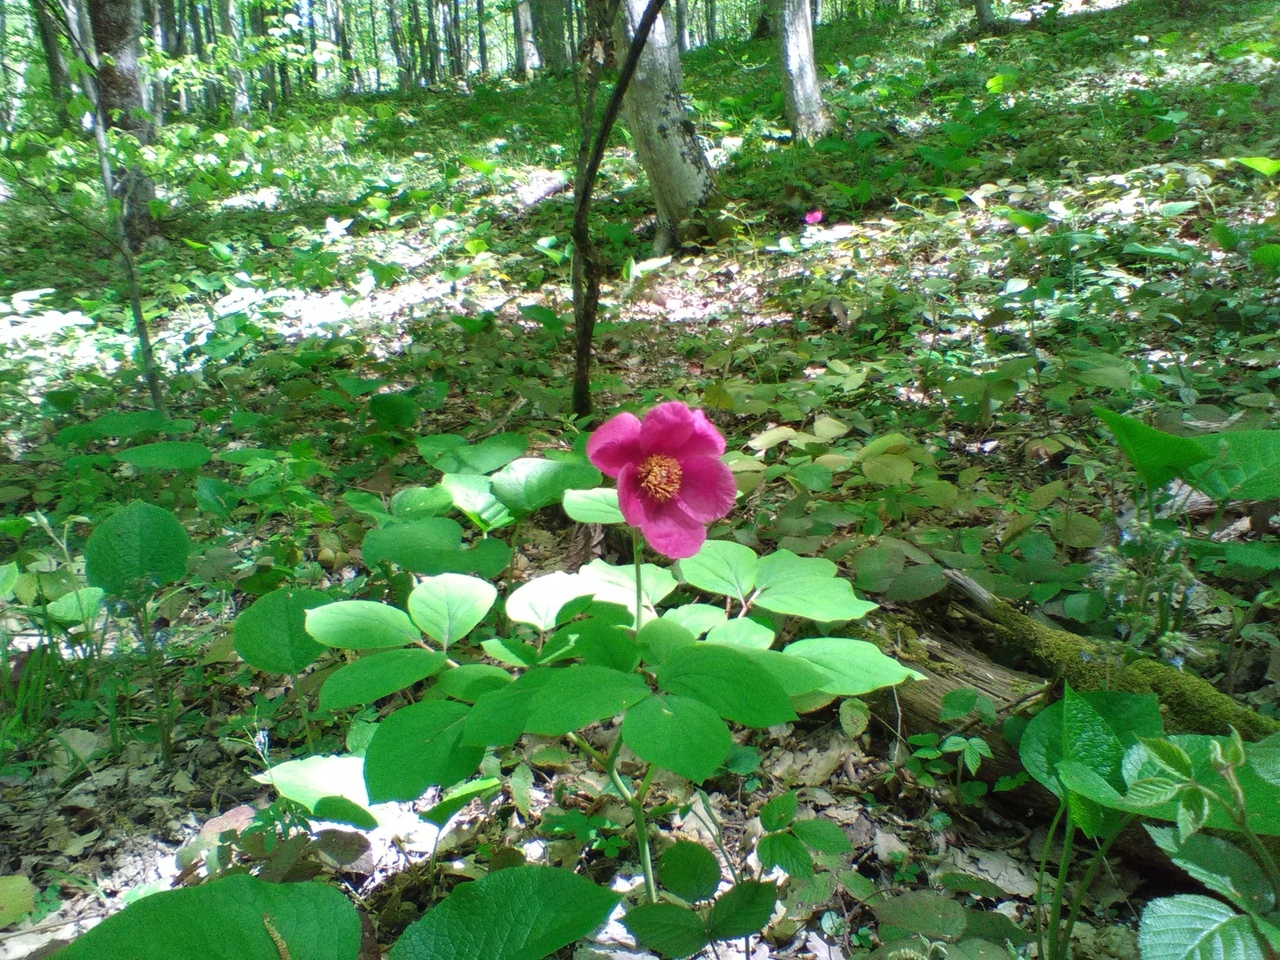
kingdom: Plantae
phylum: Tracheophyta
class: Magnoliopsida
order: Saxifragales
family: Paeoniaceae
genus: Paeonia
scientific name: Paeonia caucasica
